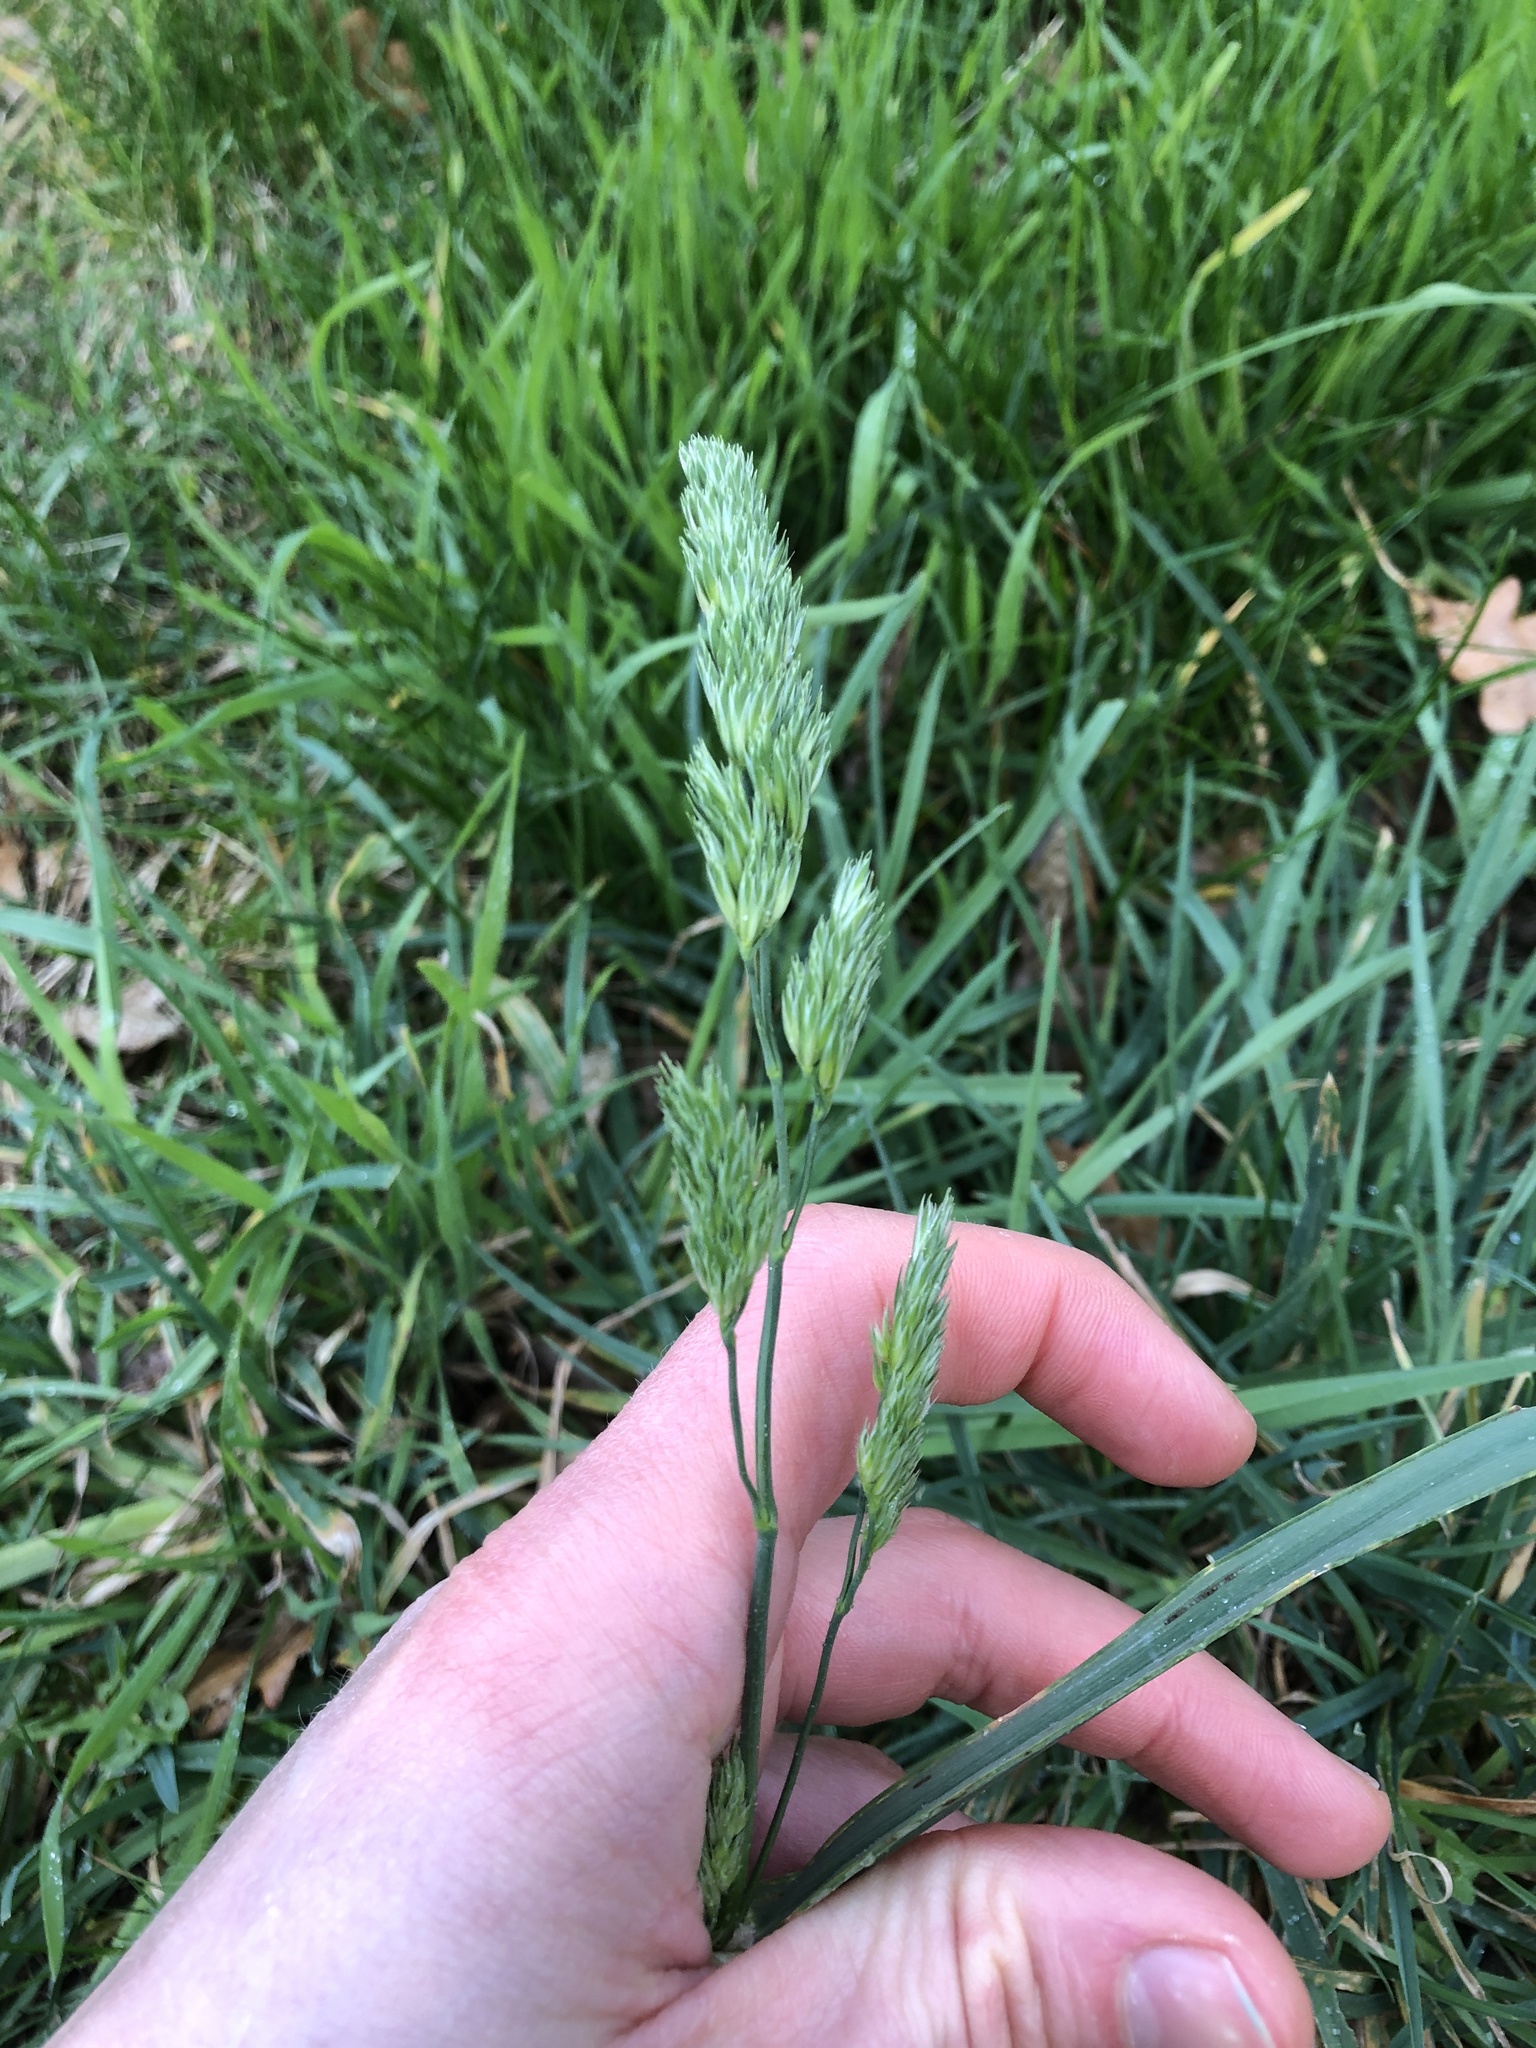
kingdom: Plantae
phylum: Tracheophyta
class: Liliopsida
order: Poales
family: Poaceae
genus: Dactylis
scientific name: Dactylis glomerata
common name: Orchardgrass
